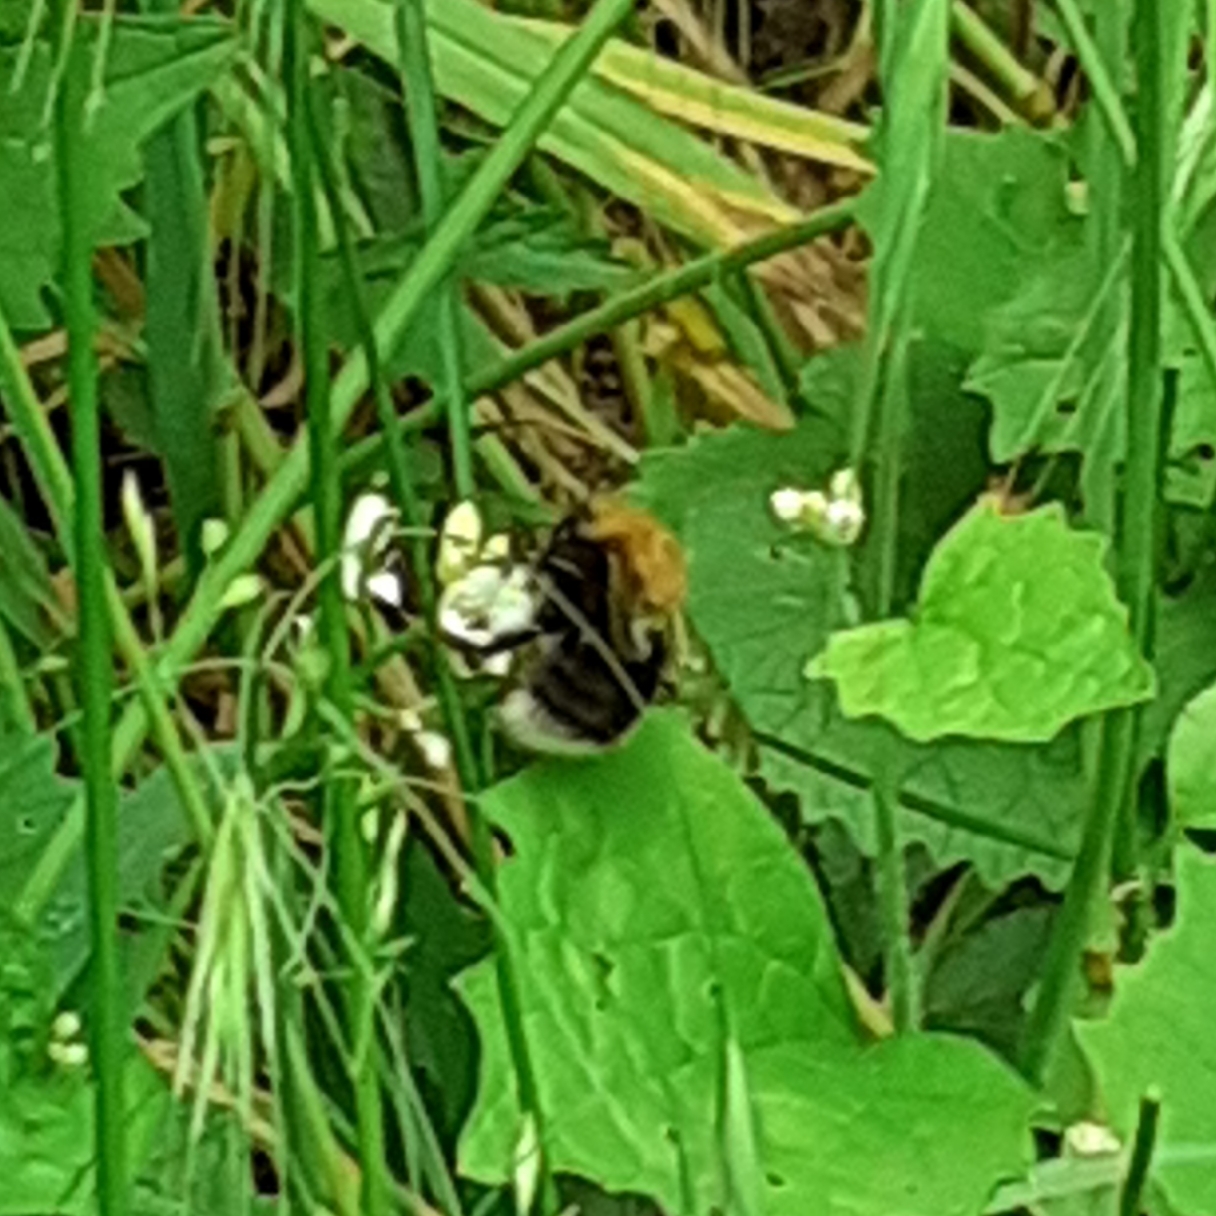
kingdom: Animalia
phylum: Arthropoda
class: Insecta
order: Hymenoptera
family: Apidae
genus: Bombus
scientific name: Bombus hypnorum
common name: New garden bumblebee
